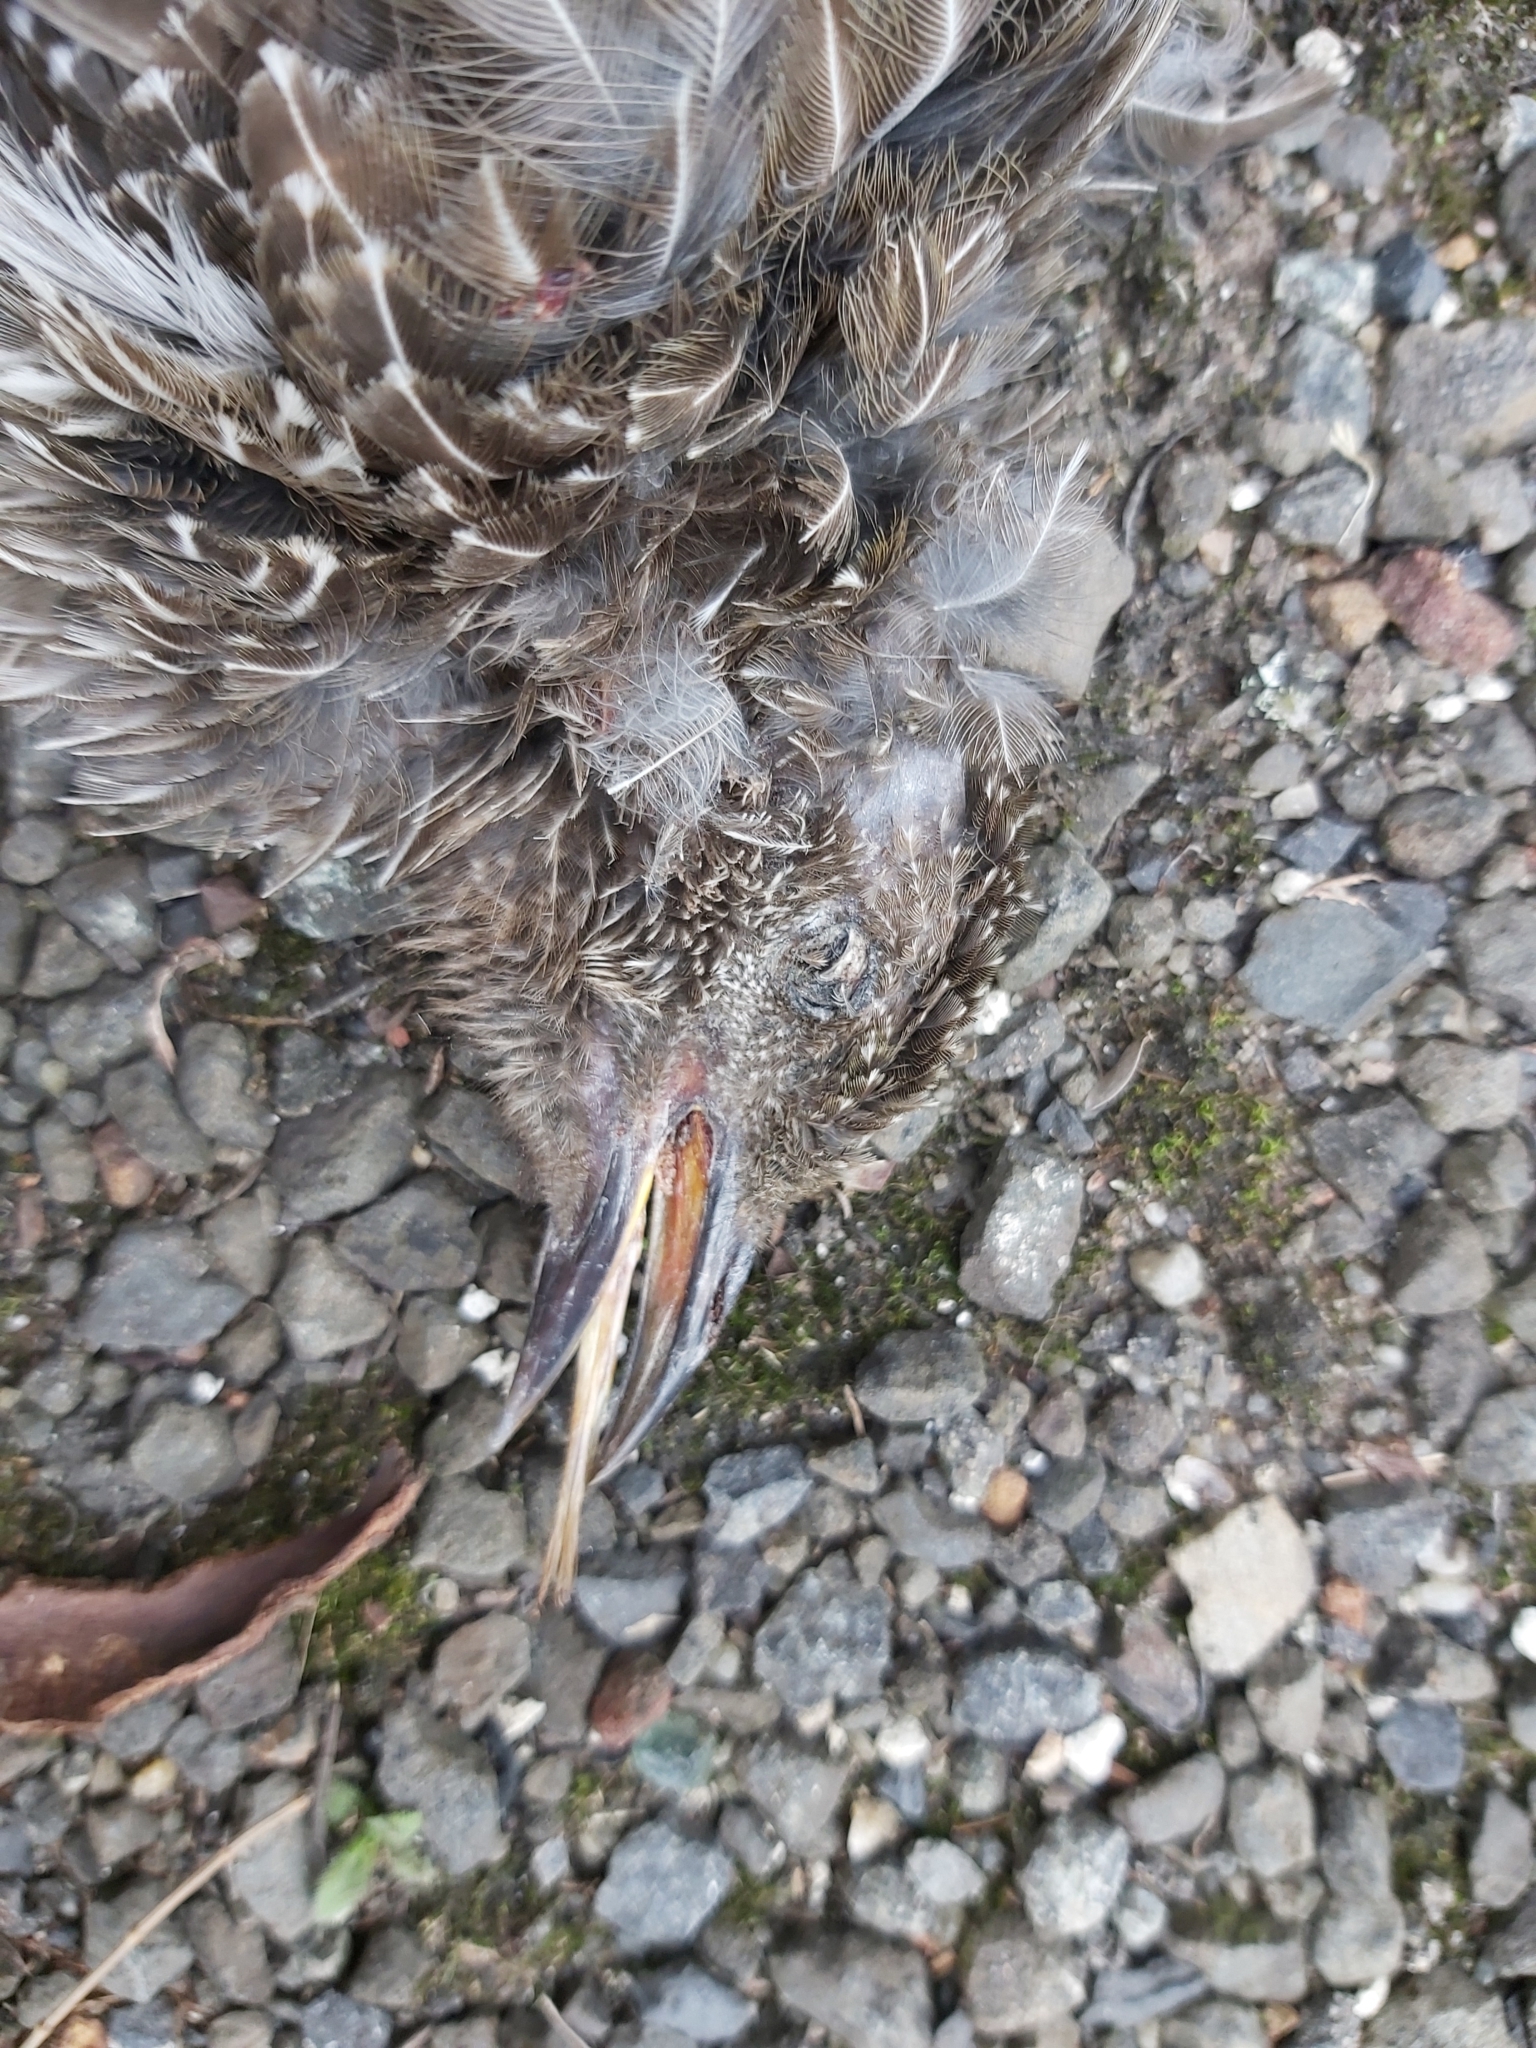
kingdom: Animalia
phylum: Chordata
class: Aves
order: Passeriformes
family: Meliphagidae
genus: Anthochaera
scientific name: Anthochaera chrysoptera
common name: Little wattlebird
